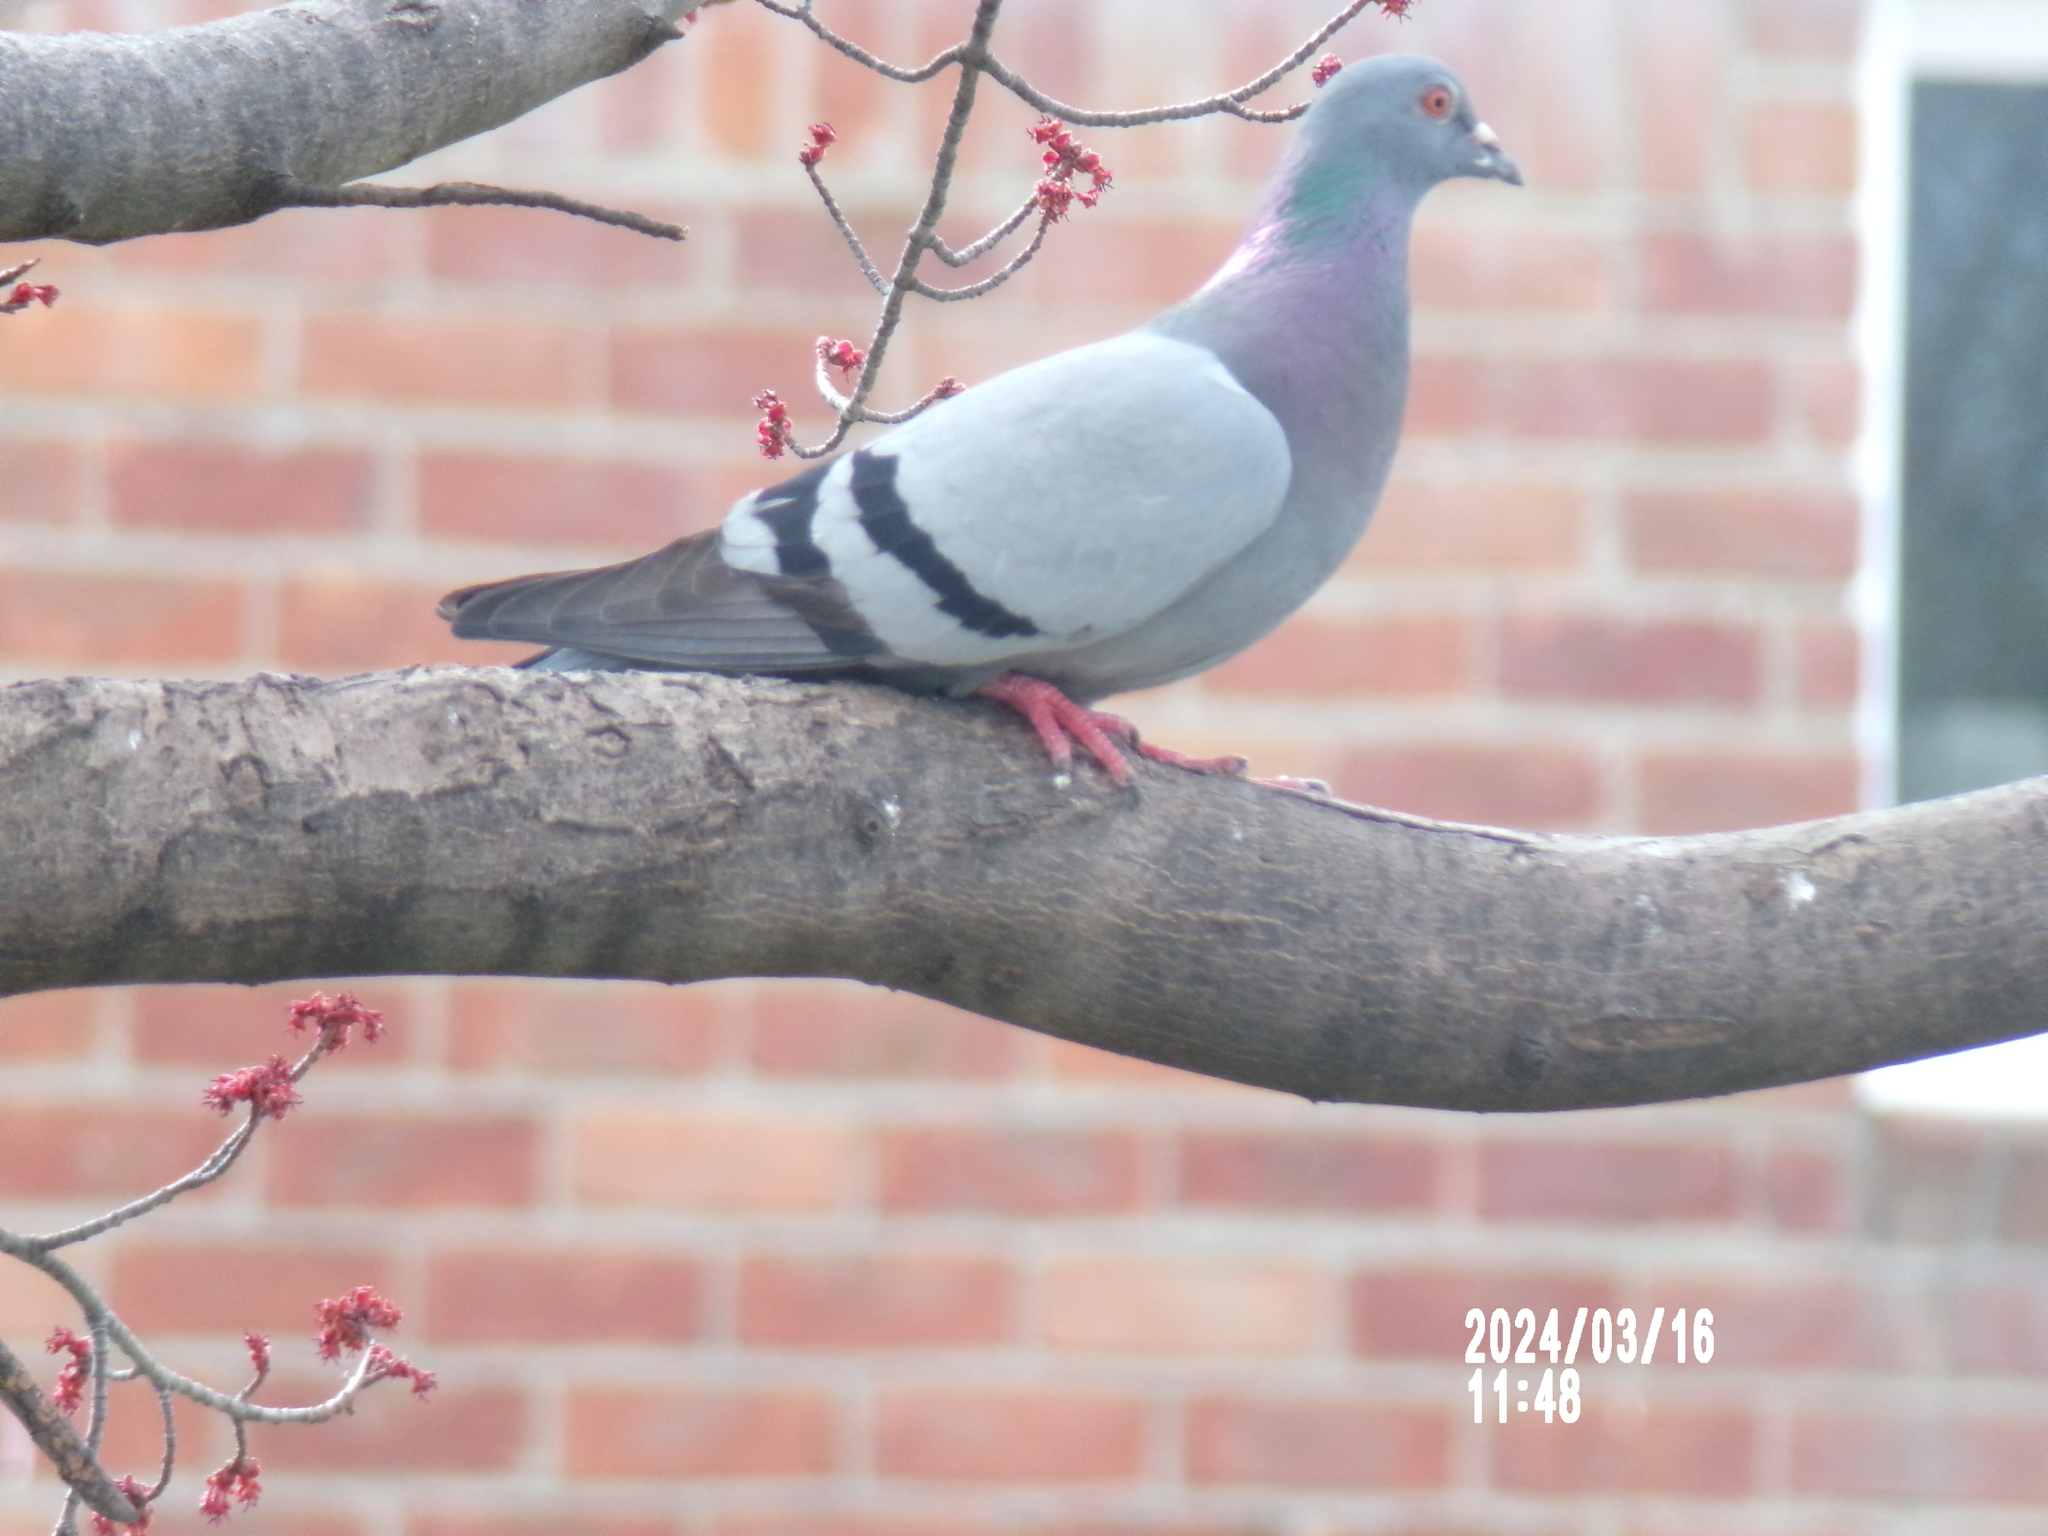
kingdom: Animalia
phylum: Chordata
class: Aves
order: Columbiformes
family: Columbidae
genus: Columba
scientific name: Columba livia
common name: Rock pigeon
